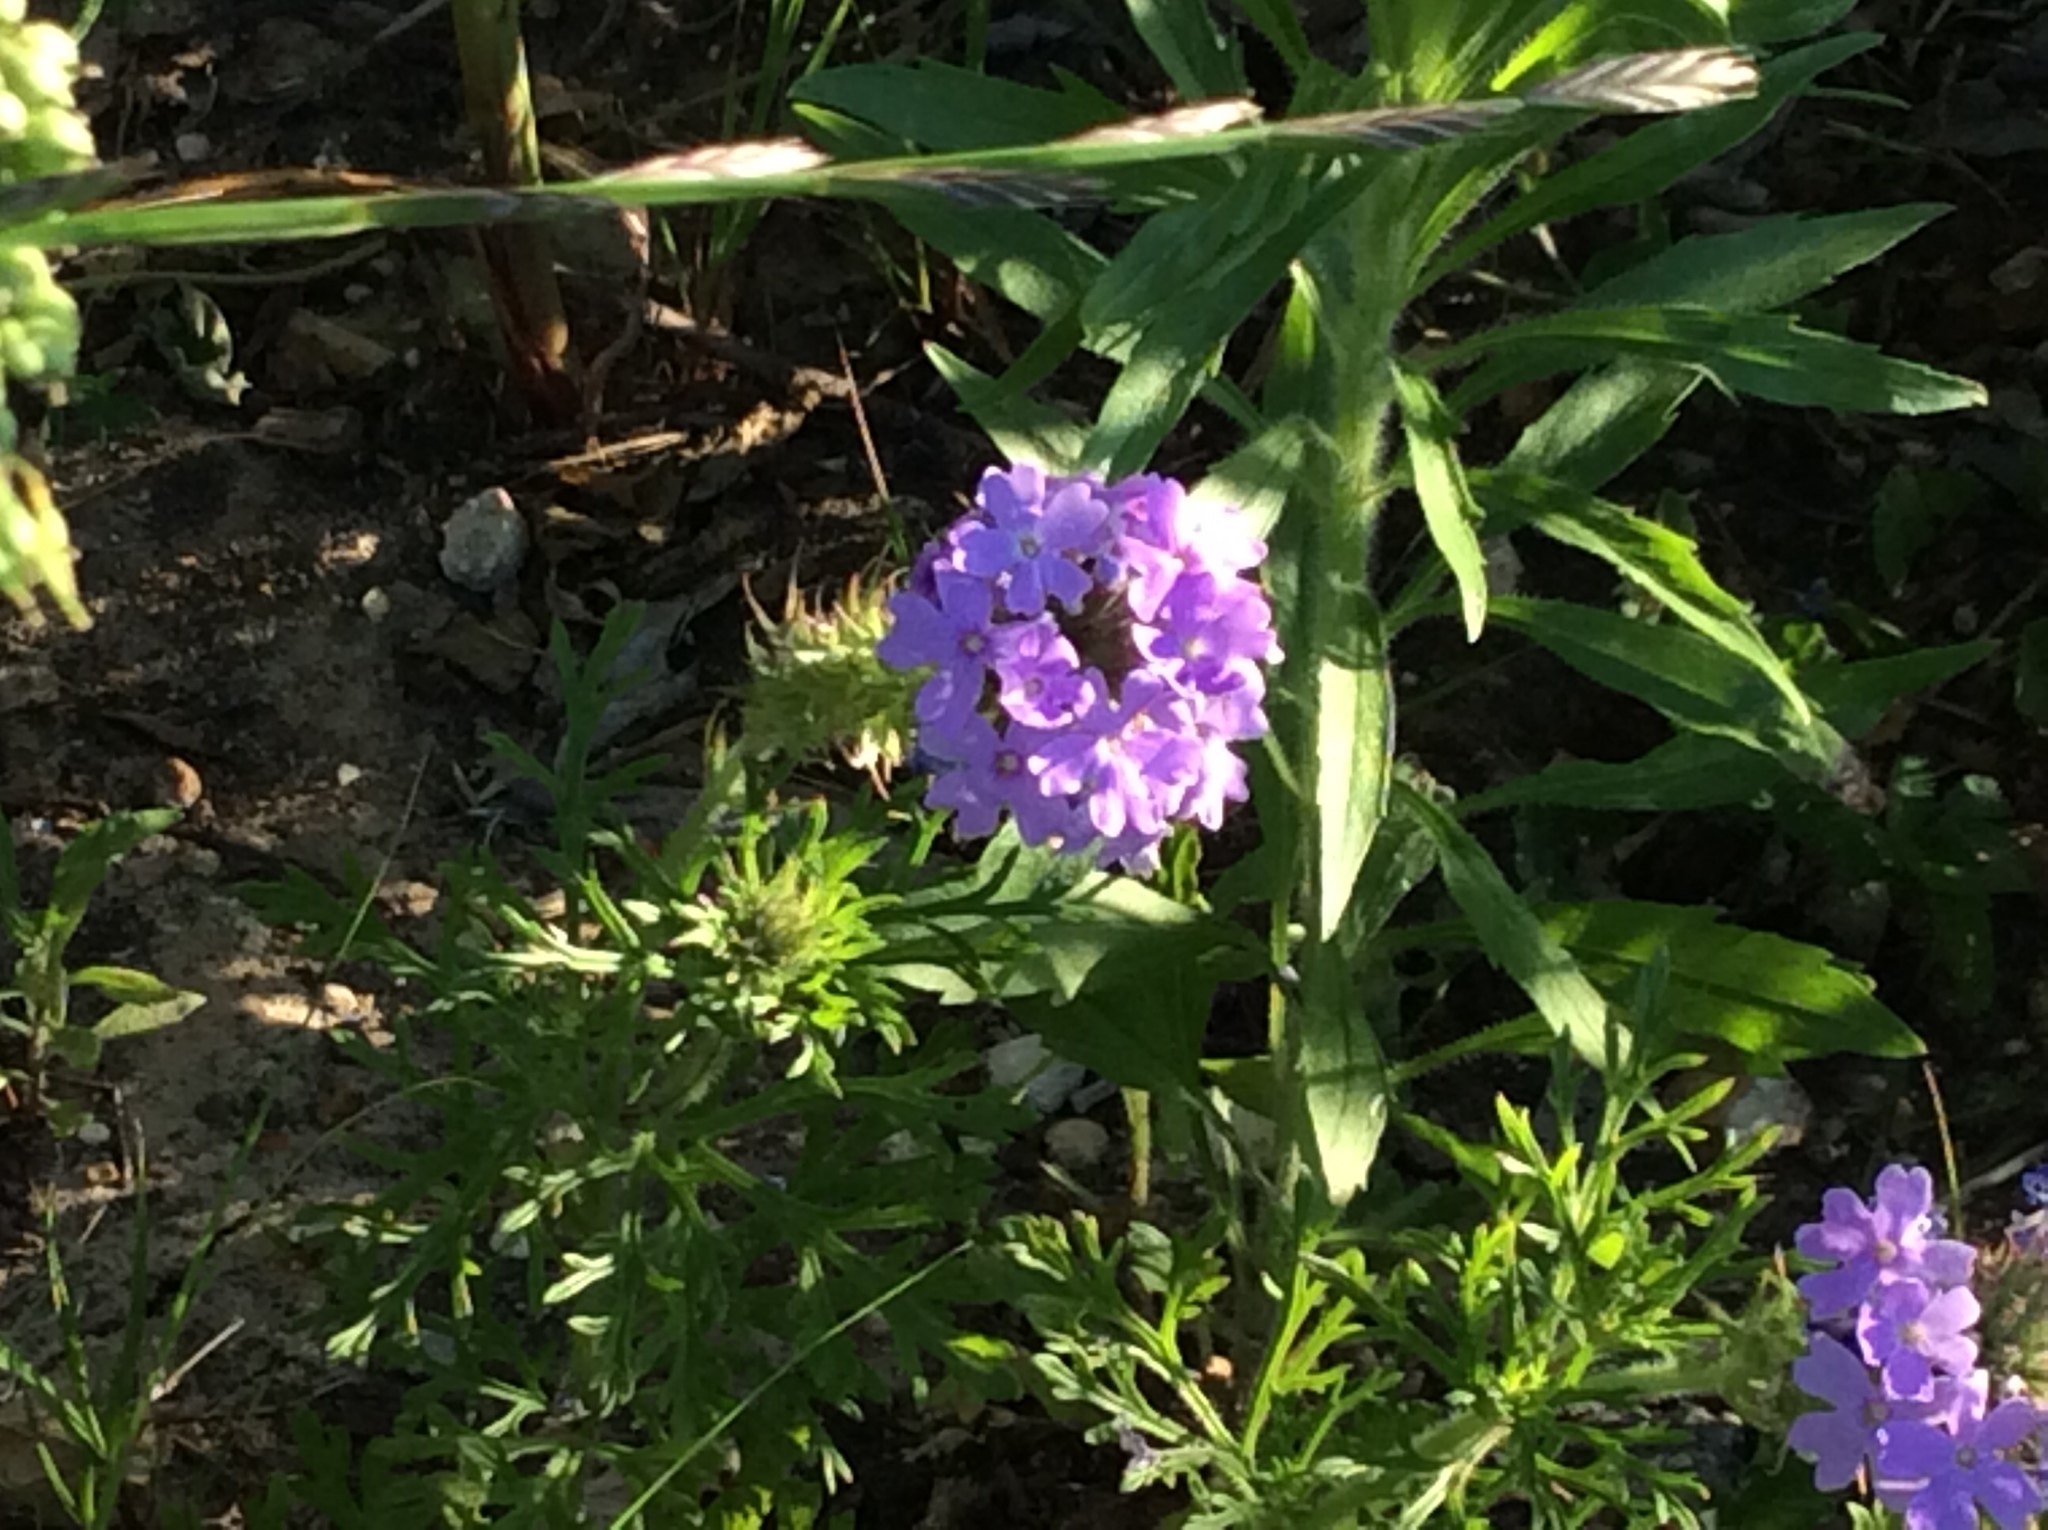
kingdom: Plantae
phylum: Tracheophyta
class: Magnoliopsida
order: Lamiales
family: Verbenaceae
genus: Verbena
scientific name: Verbena bipinnatifida
